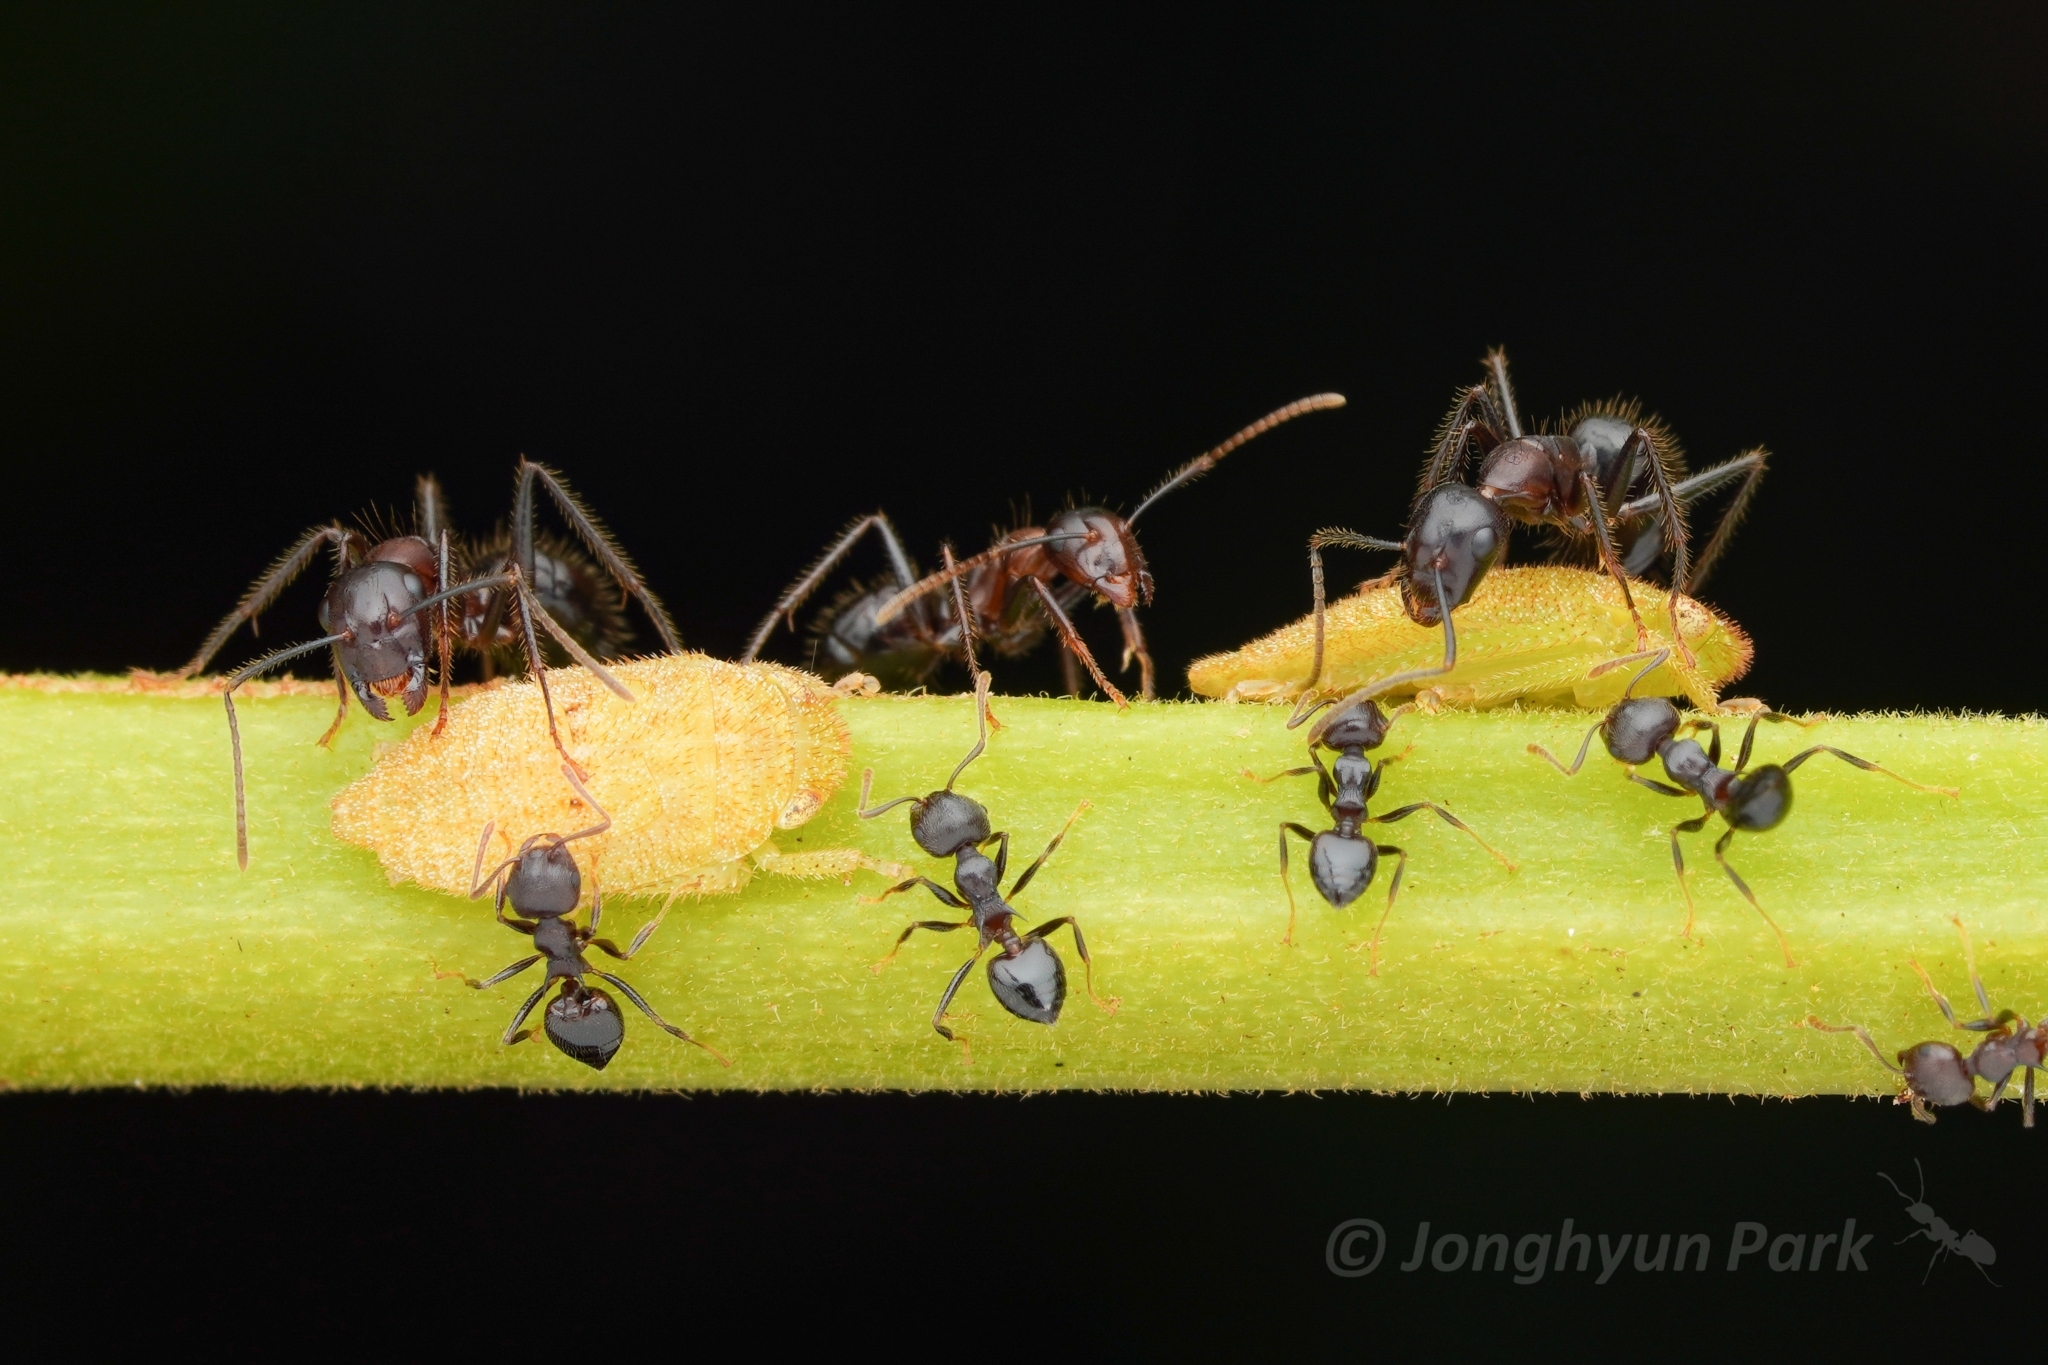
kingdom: Animalia
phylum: Arthropoda
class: Insecta
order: Hymenoptera
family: Formicidae
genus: Camponotus
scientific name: Camponotus rufifemur
